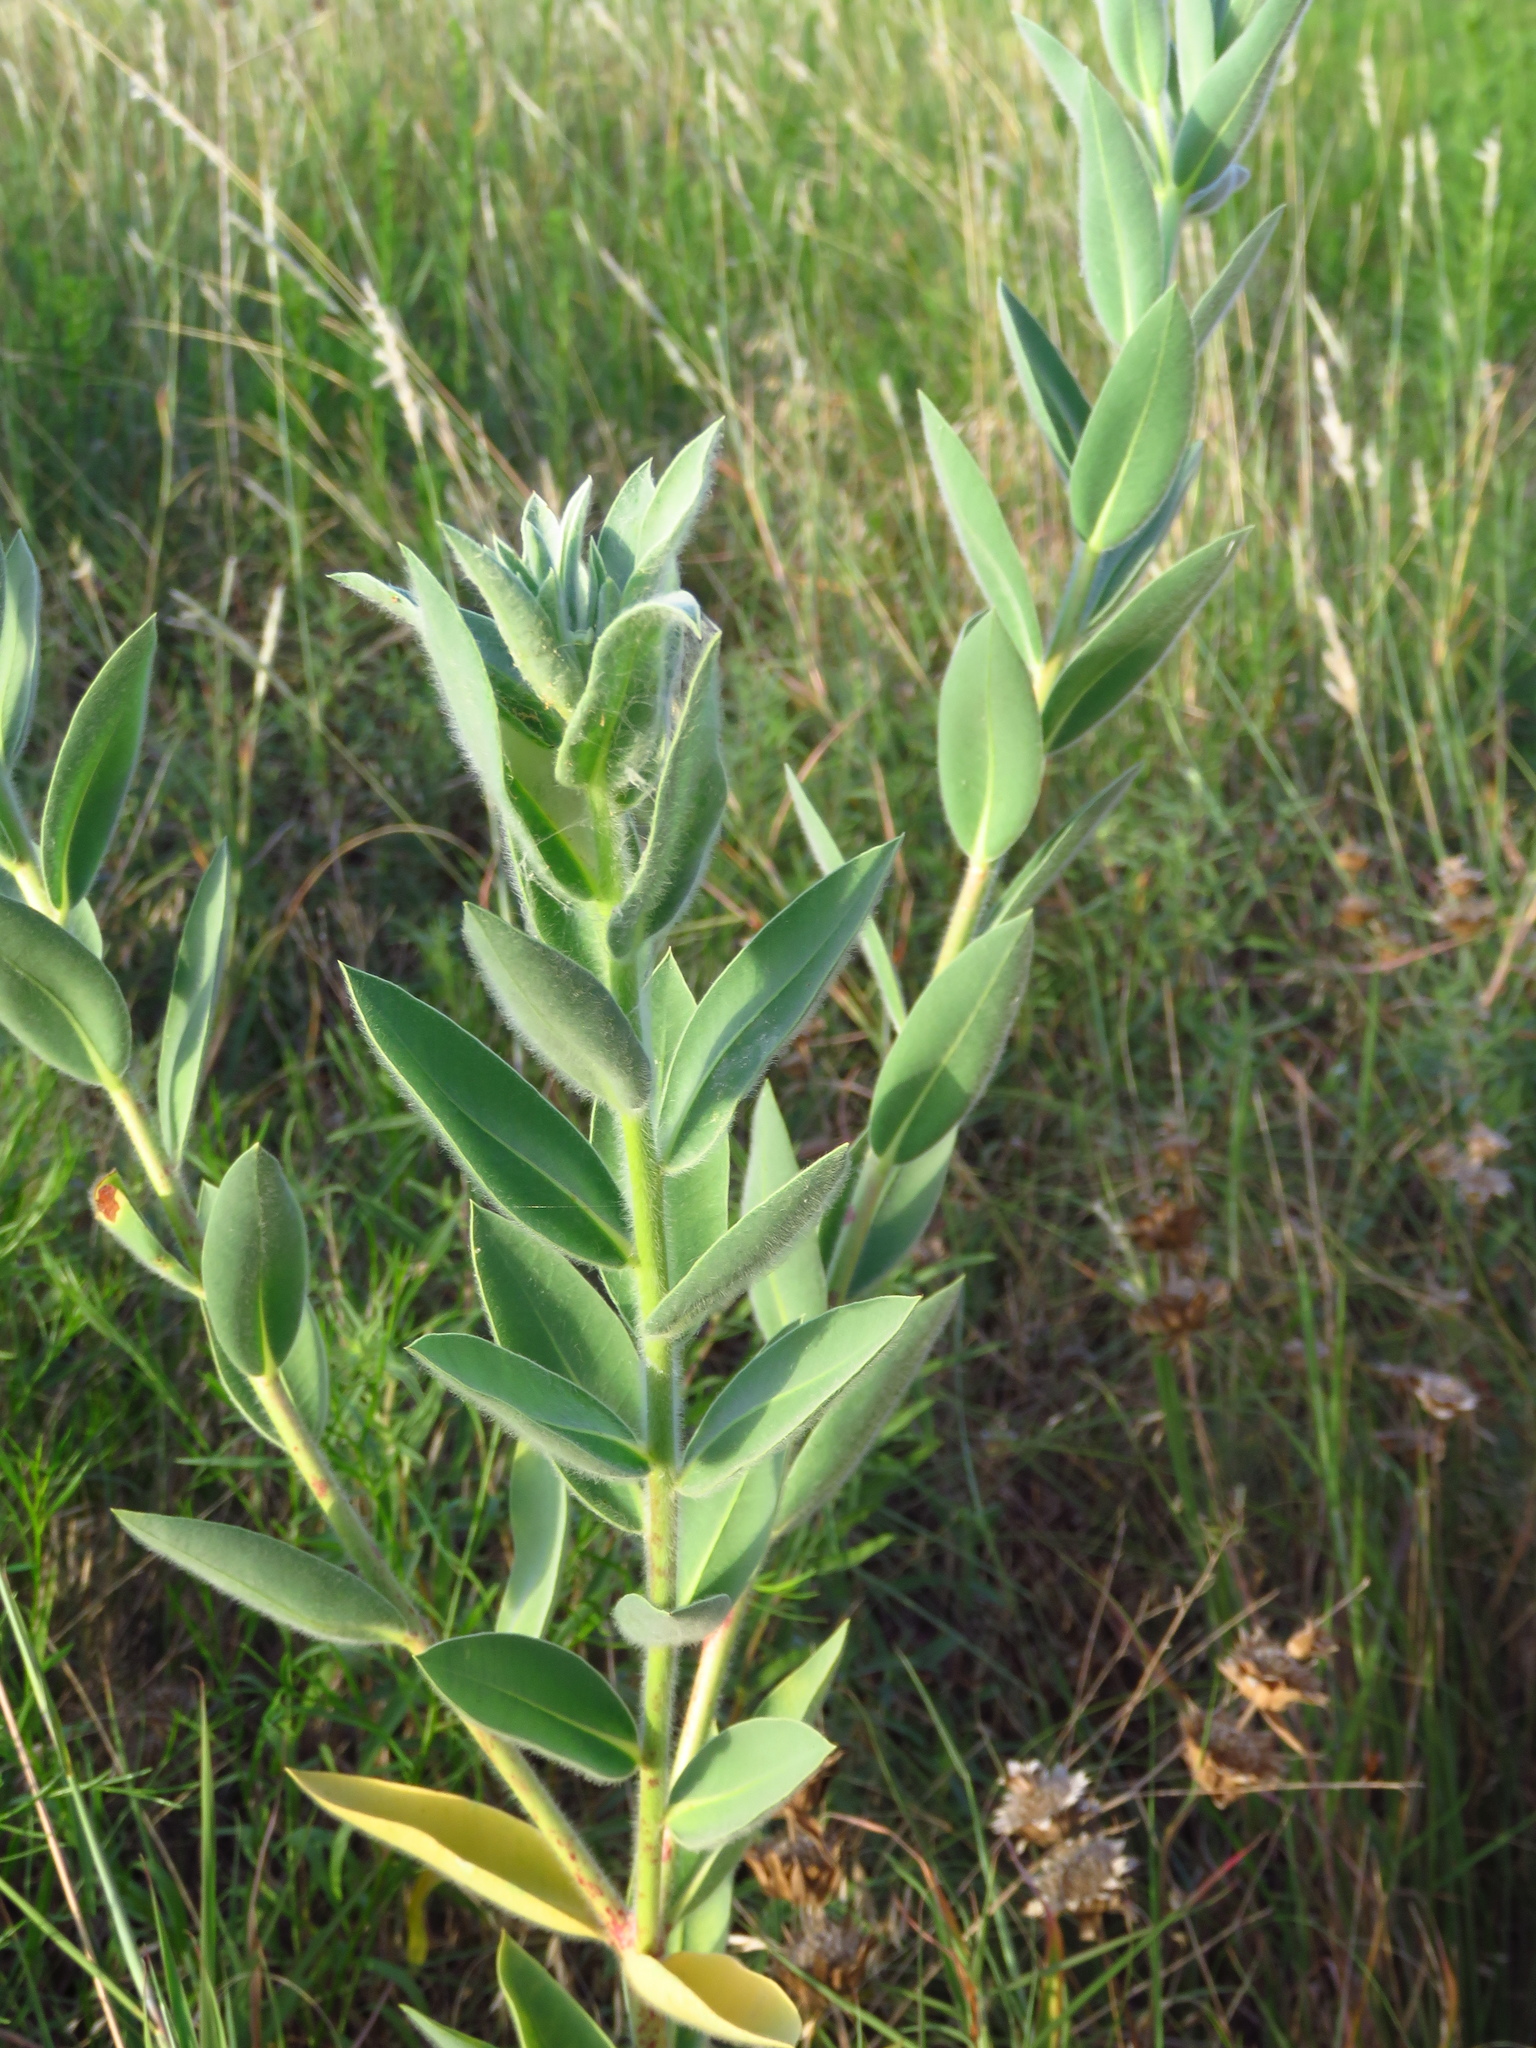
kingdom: Plantae
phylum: Tracheophyta
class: Magnoliopsida
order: Malpighiales
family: Euphorbiaceae
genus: Euphorbia
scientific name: Euphorbia bicolor
